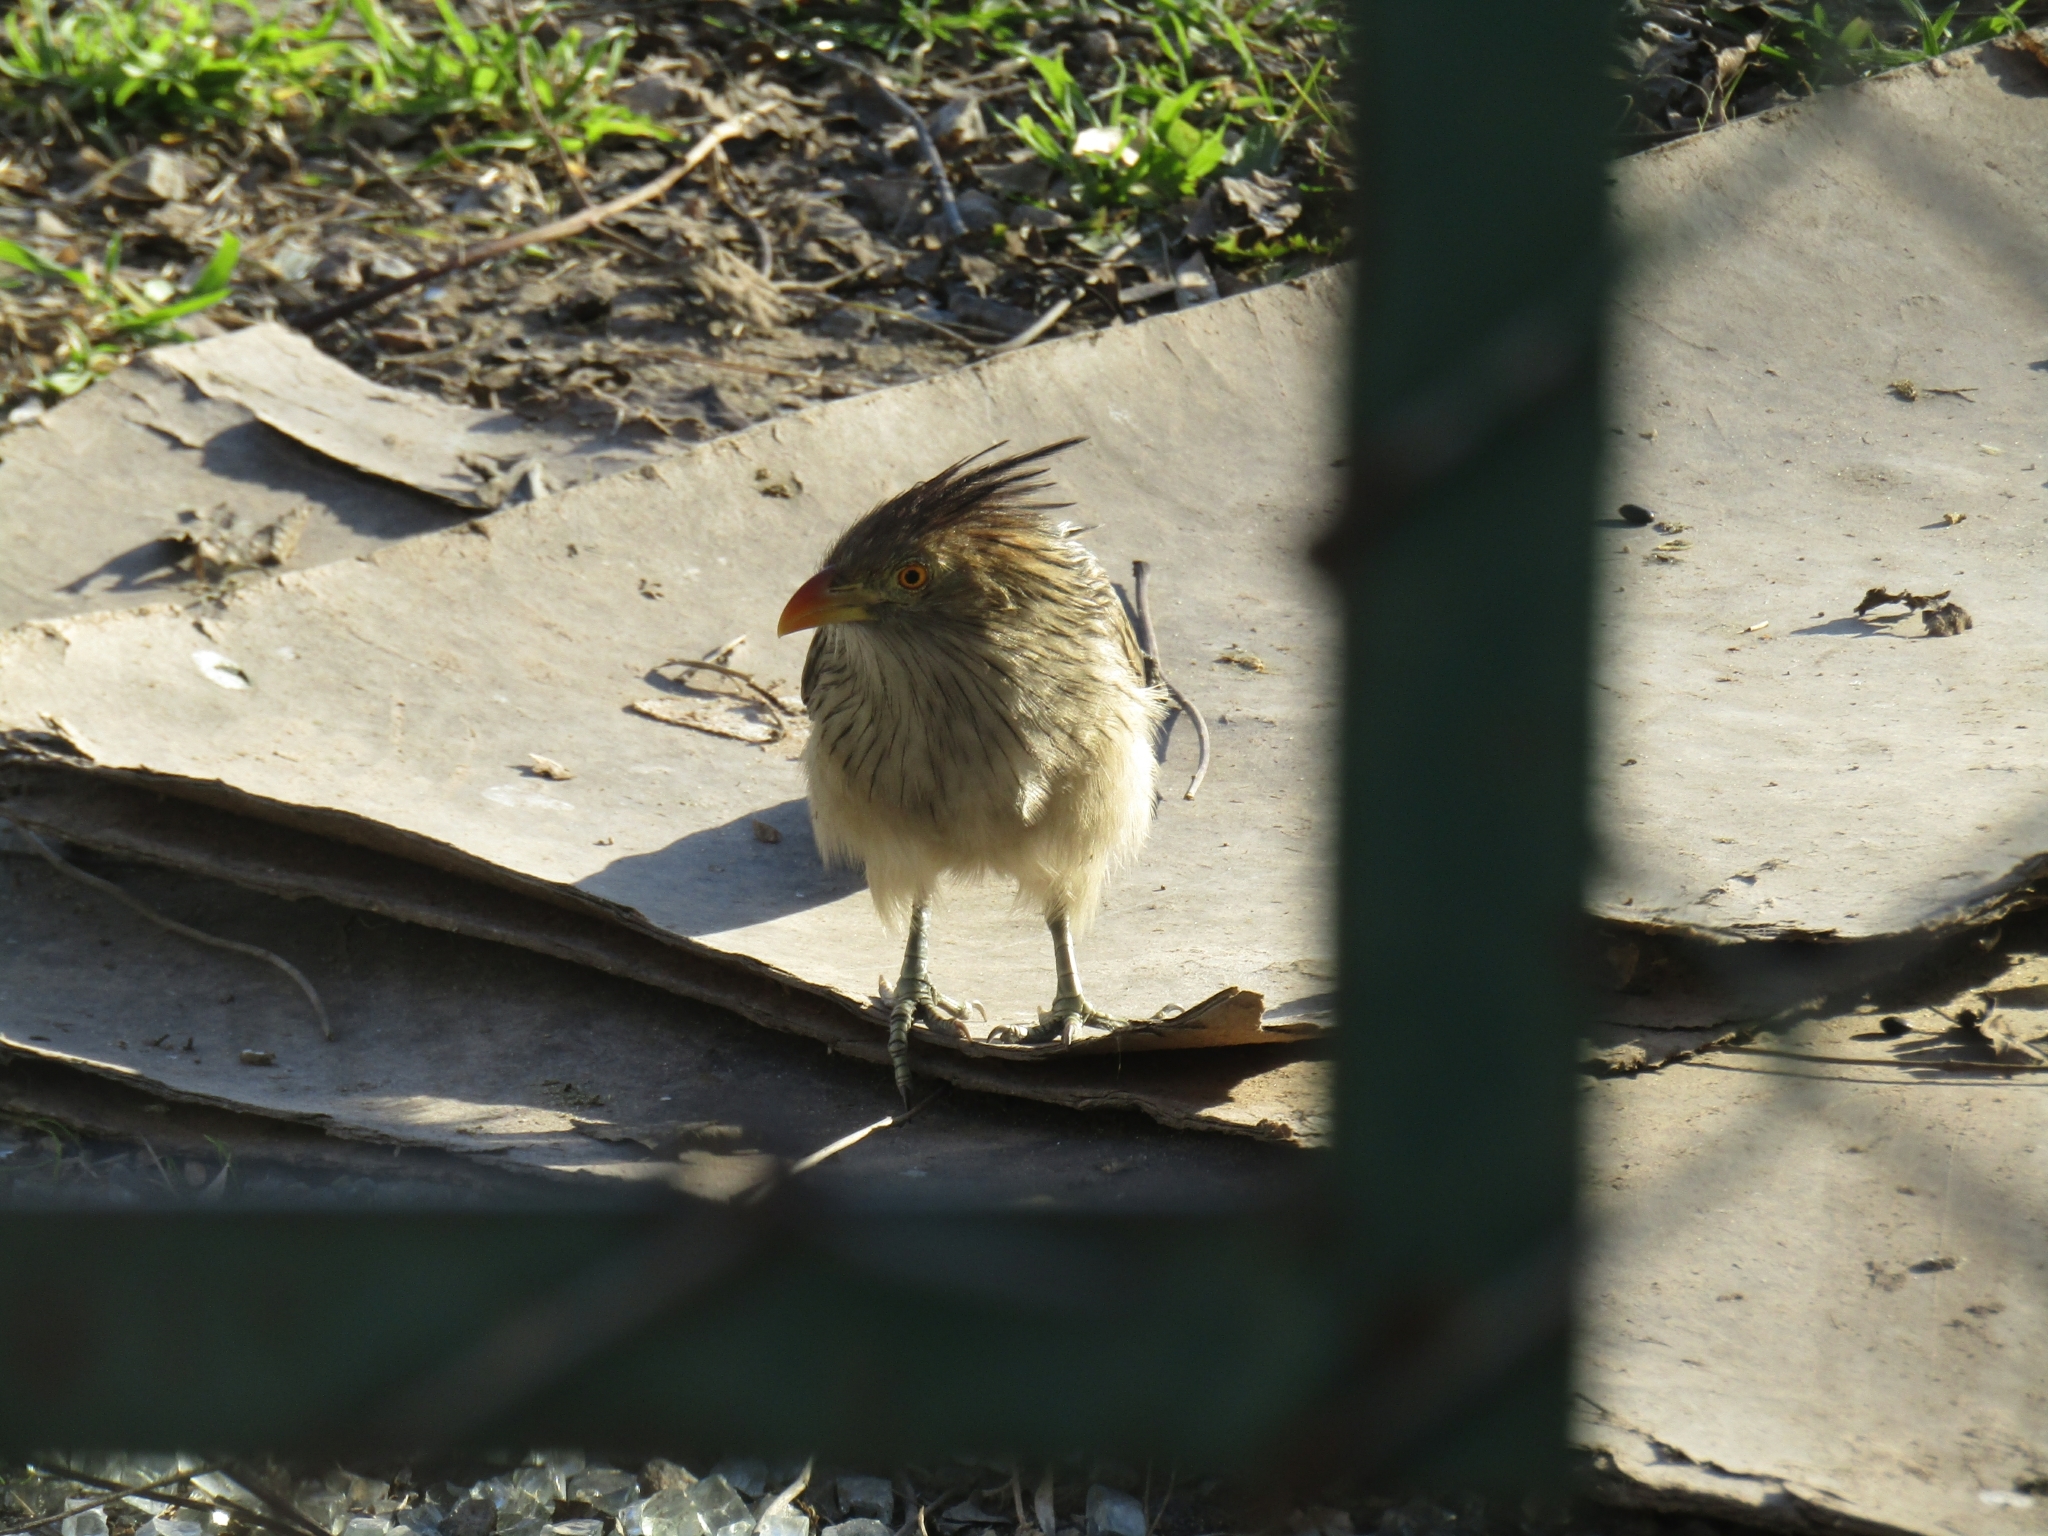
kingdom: Animalia
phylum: Chordata
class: Aves
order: Cuculiformes
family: Cuculidae
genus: Guira
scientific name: Guira guira
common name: Guira cuckoo
